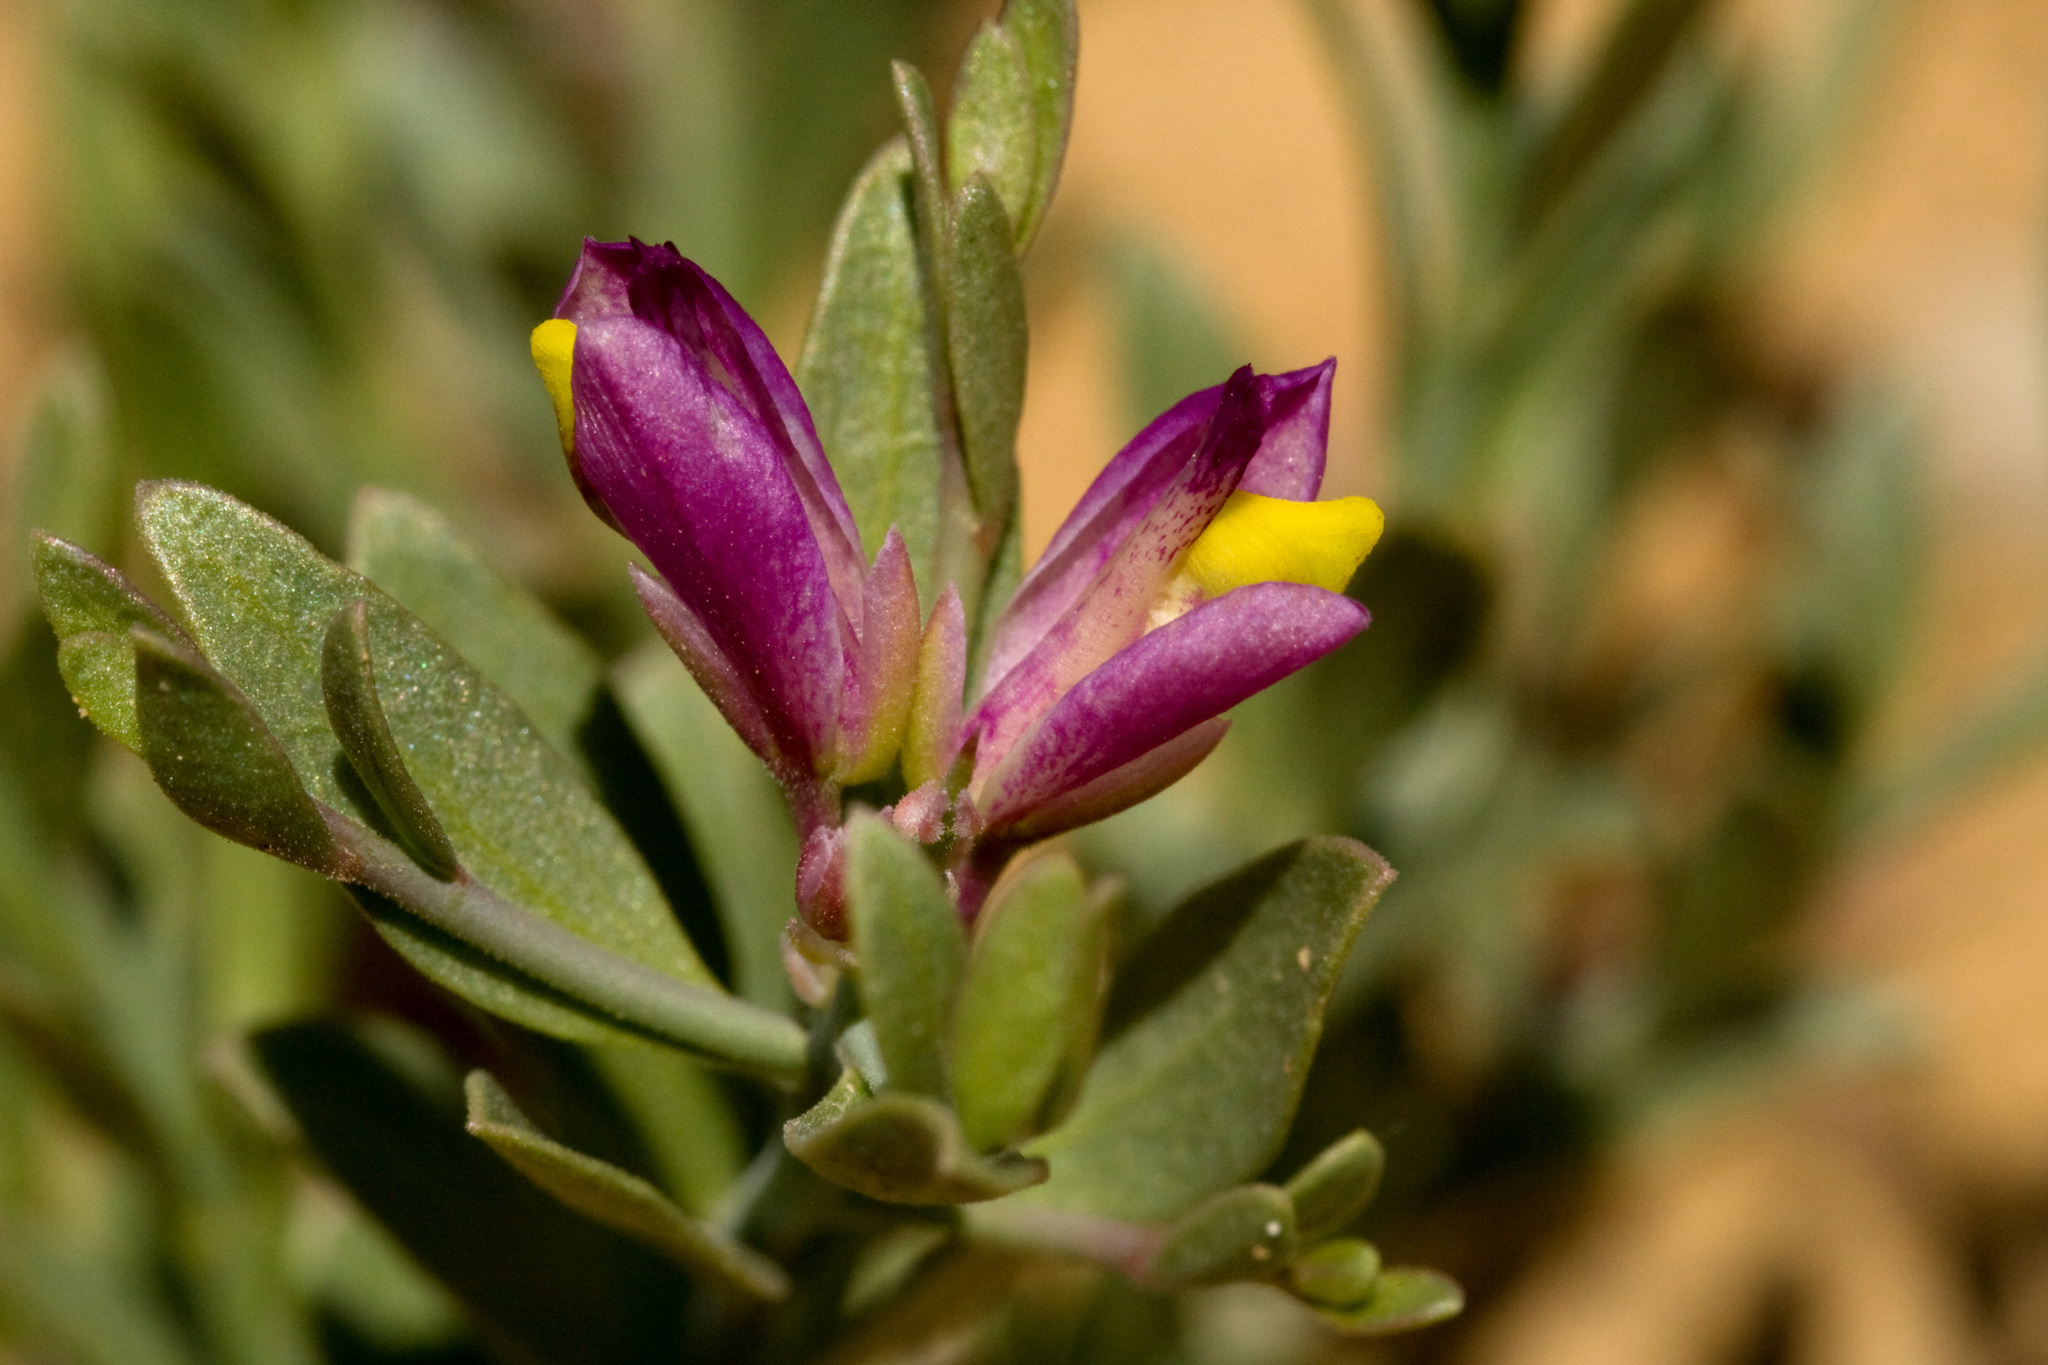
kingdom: Plantae
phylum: Tracheophyta
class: Magnoliopsida
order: Fabales
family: Polygalaceae
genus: Rhinotropis
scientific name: Rhinotropis subspinosa
